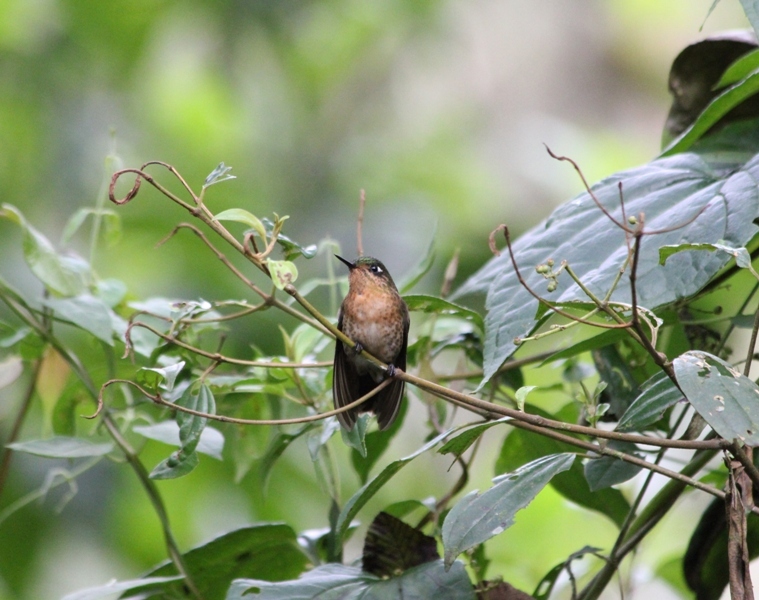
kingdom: Animalia
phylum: Chordata
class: Aves
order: Apodiformes
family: Trochilidae
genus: Metallura
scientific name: Metallura tyrianthina
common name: Tyrian metaltail
